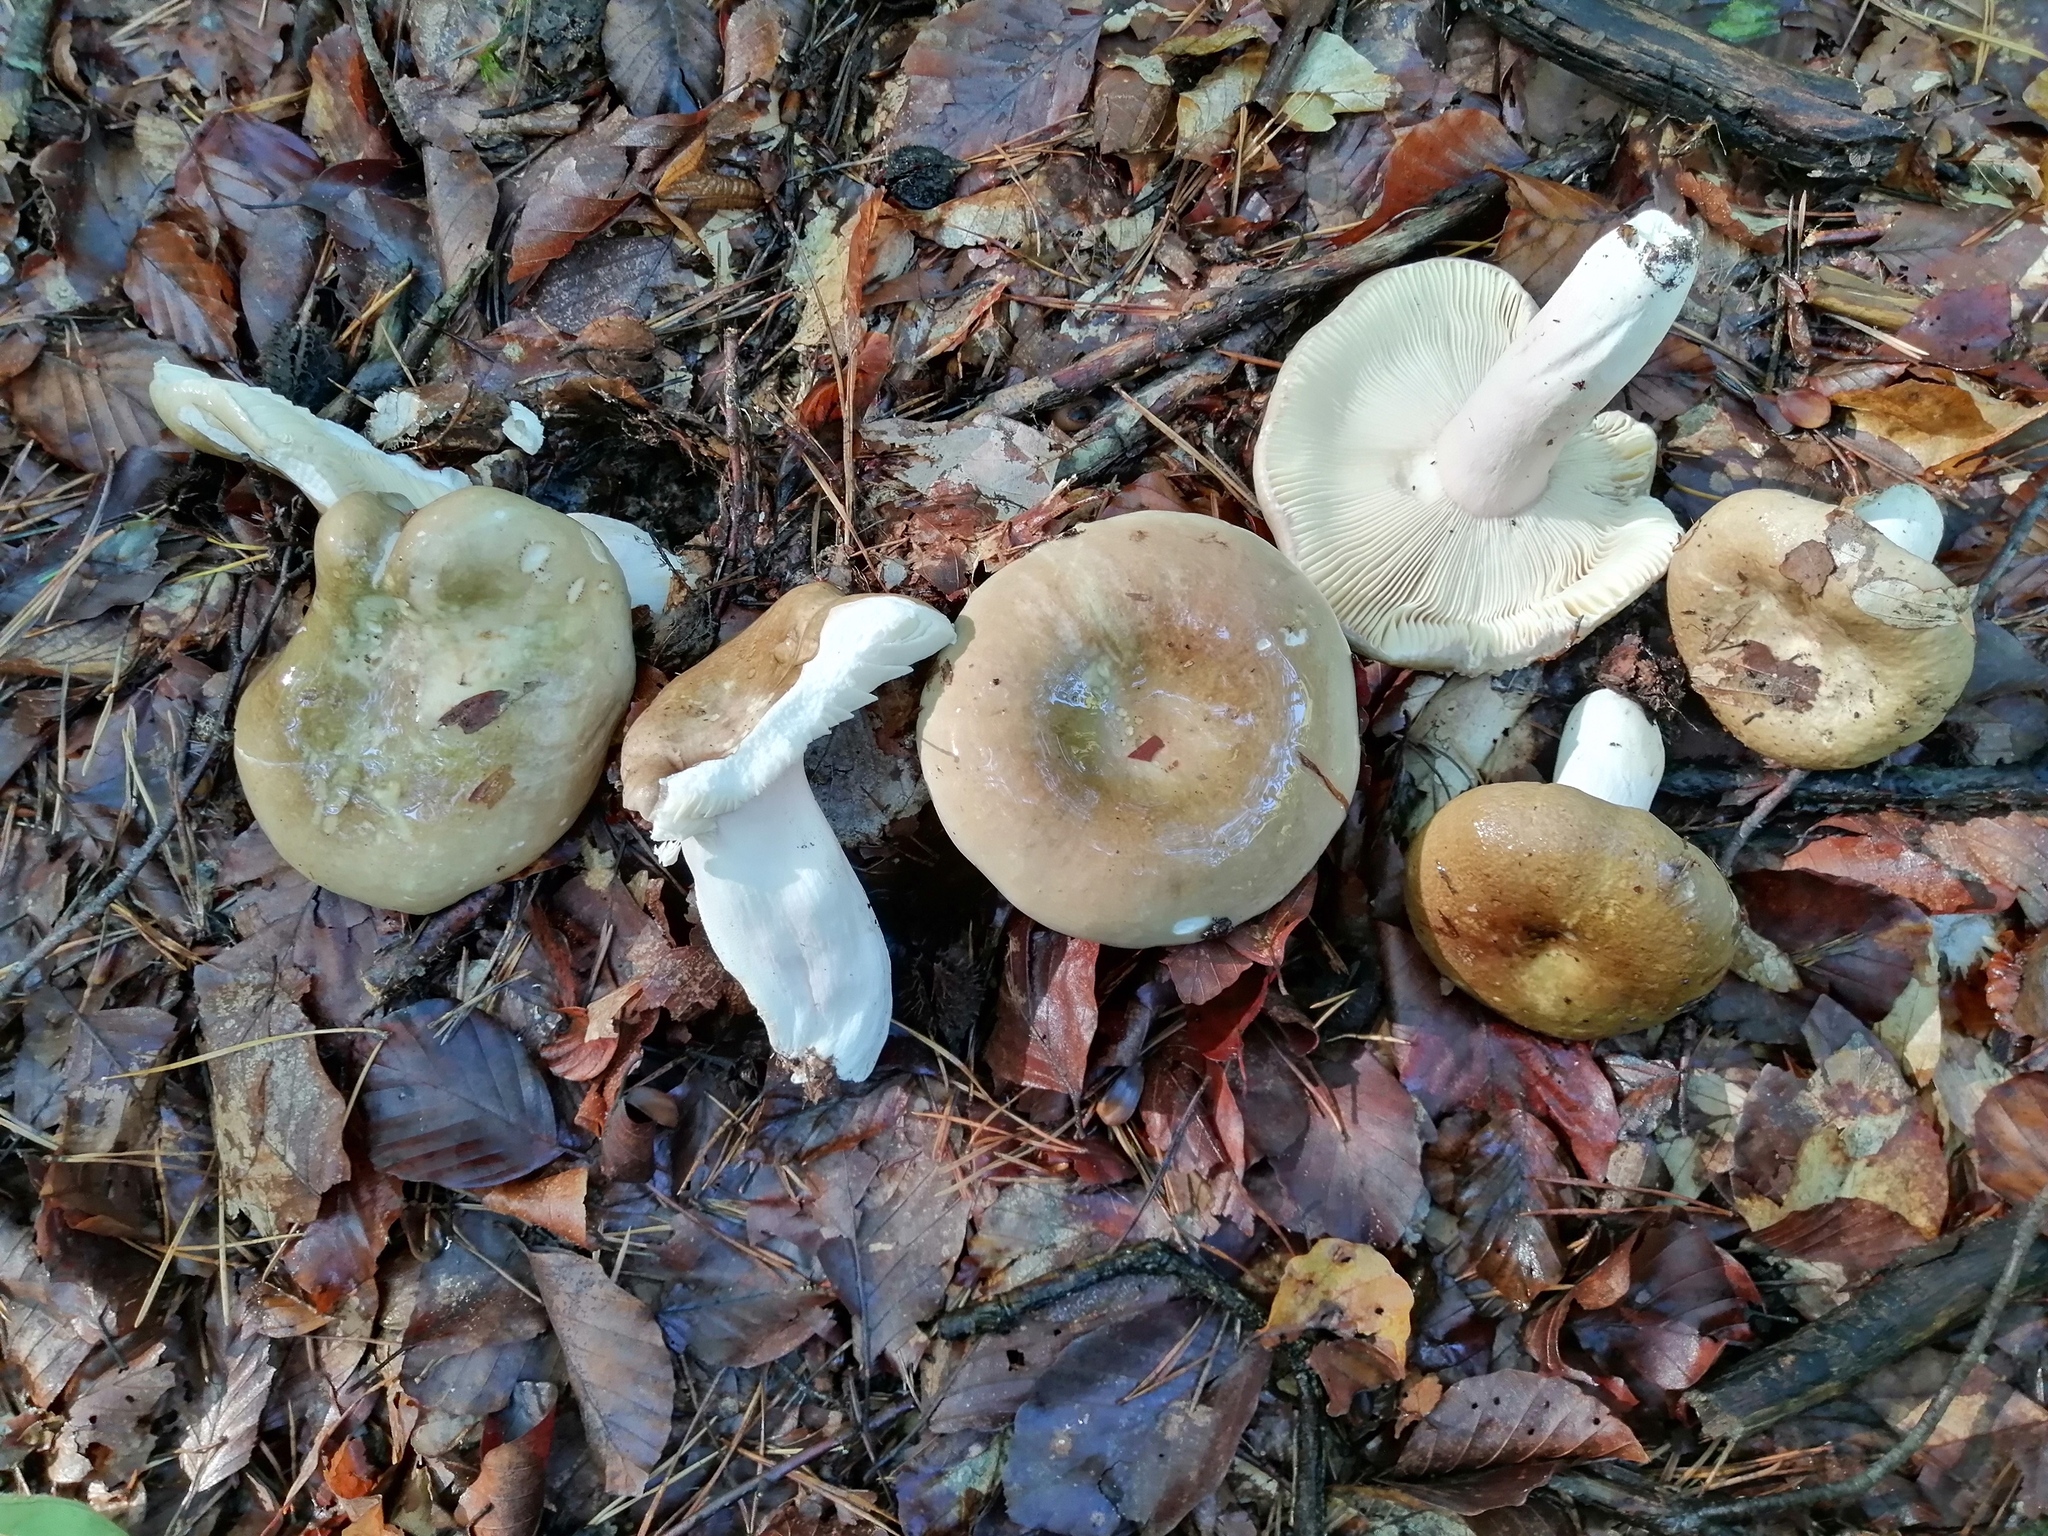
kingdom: Fungi
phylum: Basidiomycota
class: Agaricomycetes
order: Russulales
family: Russulaceae
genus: Russula
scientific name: Russula olivacea
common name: Olive brittlegill
